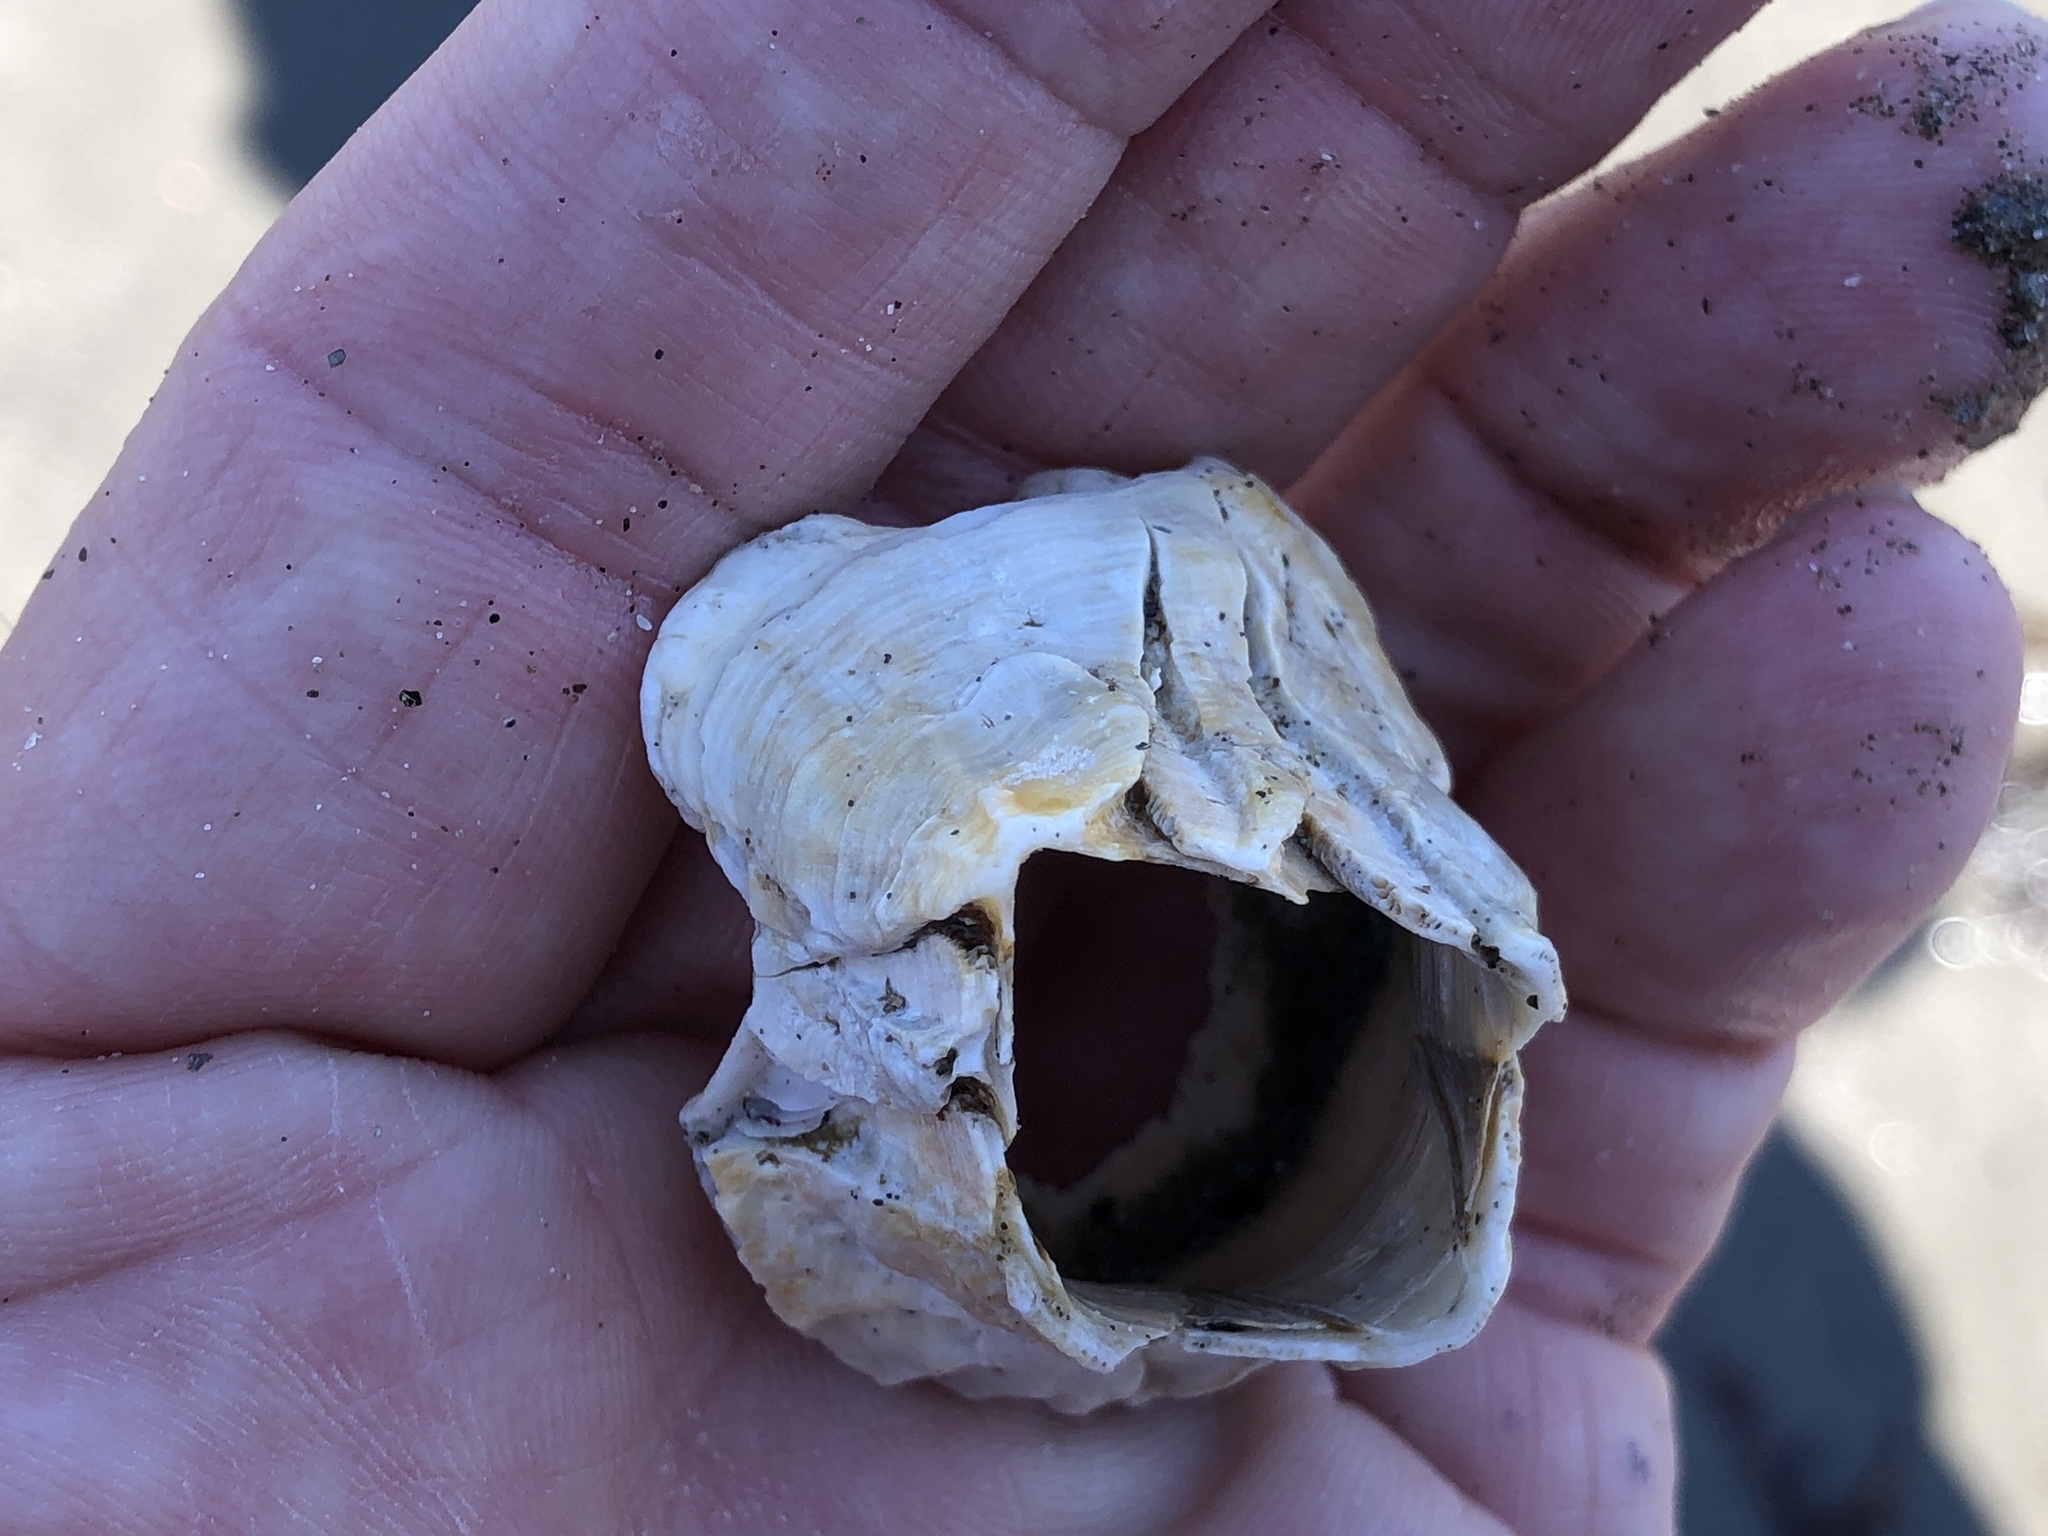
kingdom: Animalia
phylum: Arthropoda
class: Maxillopoda
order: Sessilia
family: Balanidae
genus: Menesiniella
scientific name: Menesiniella aquila
